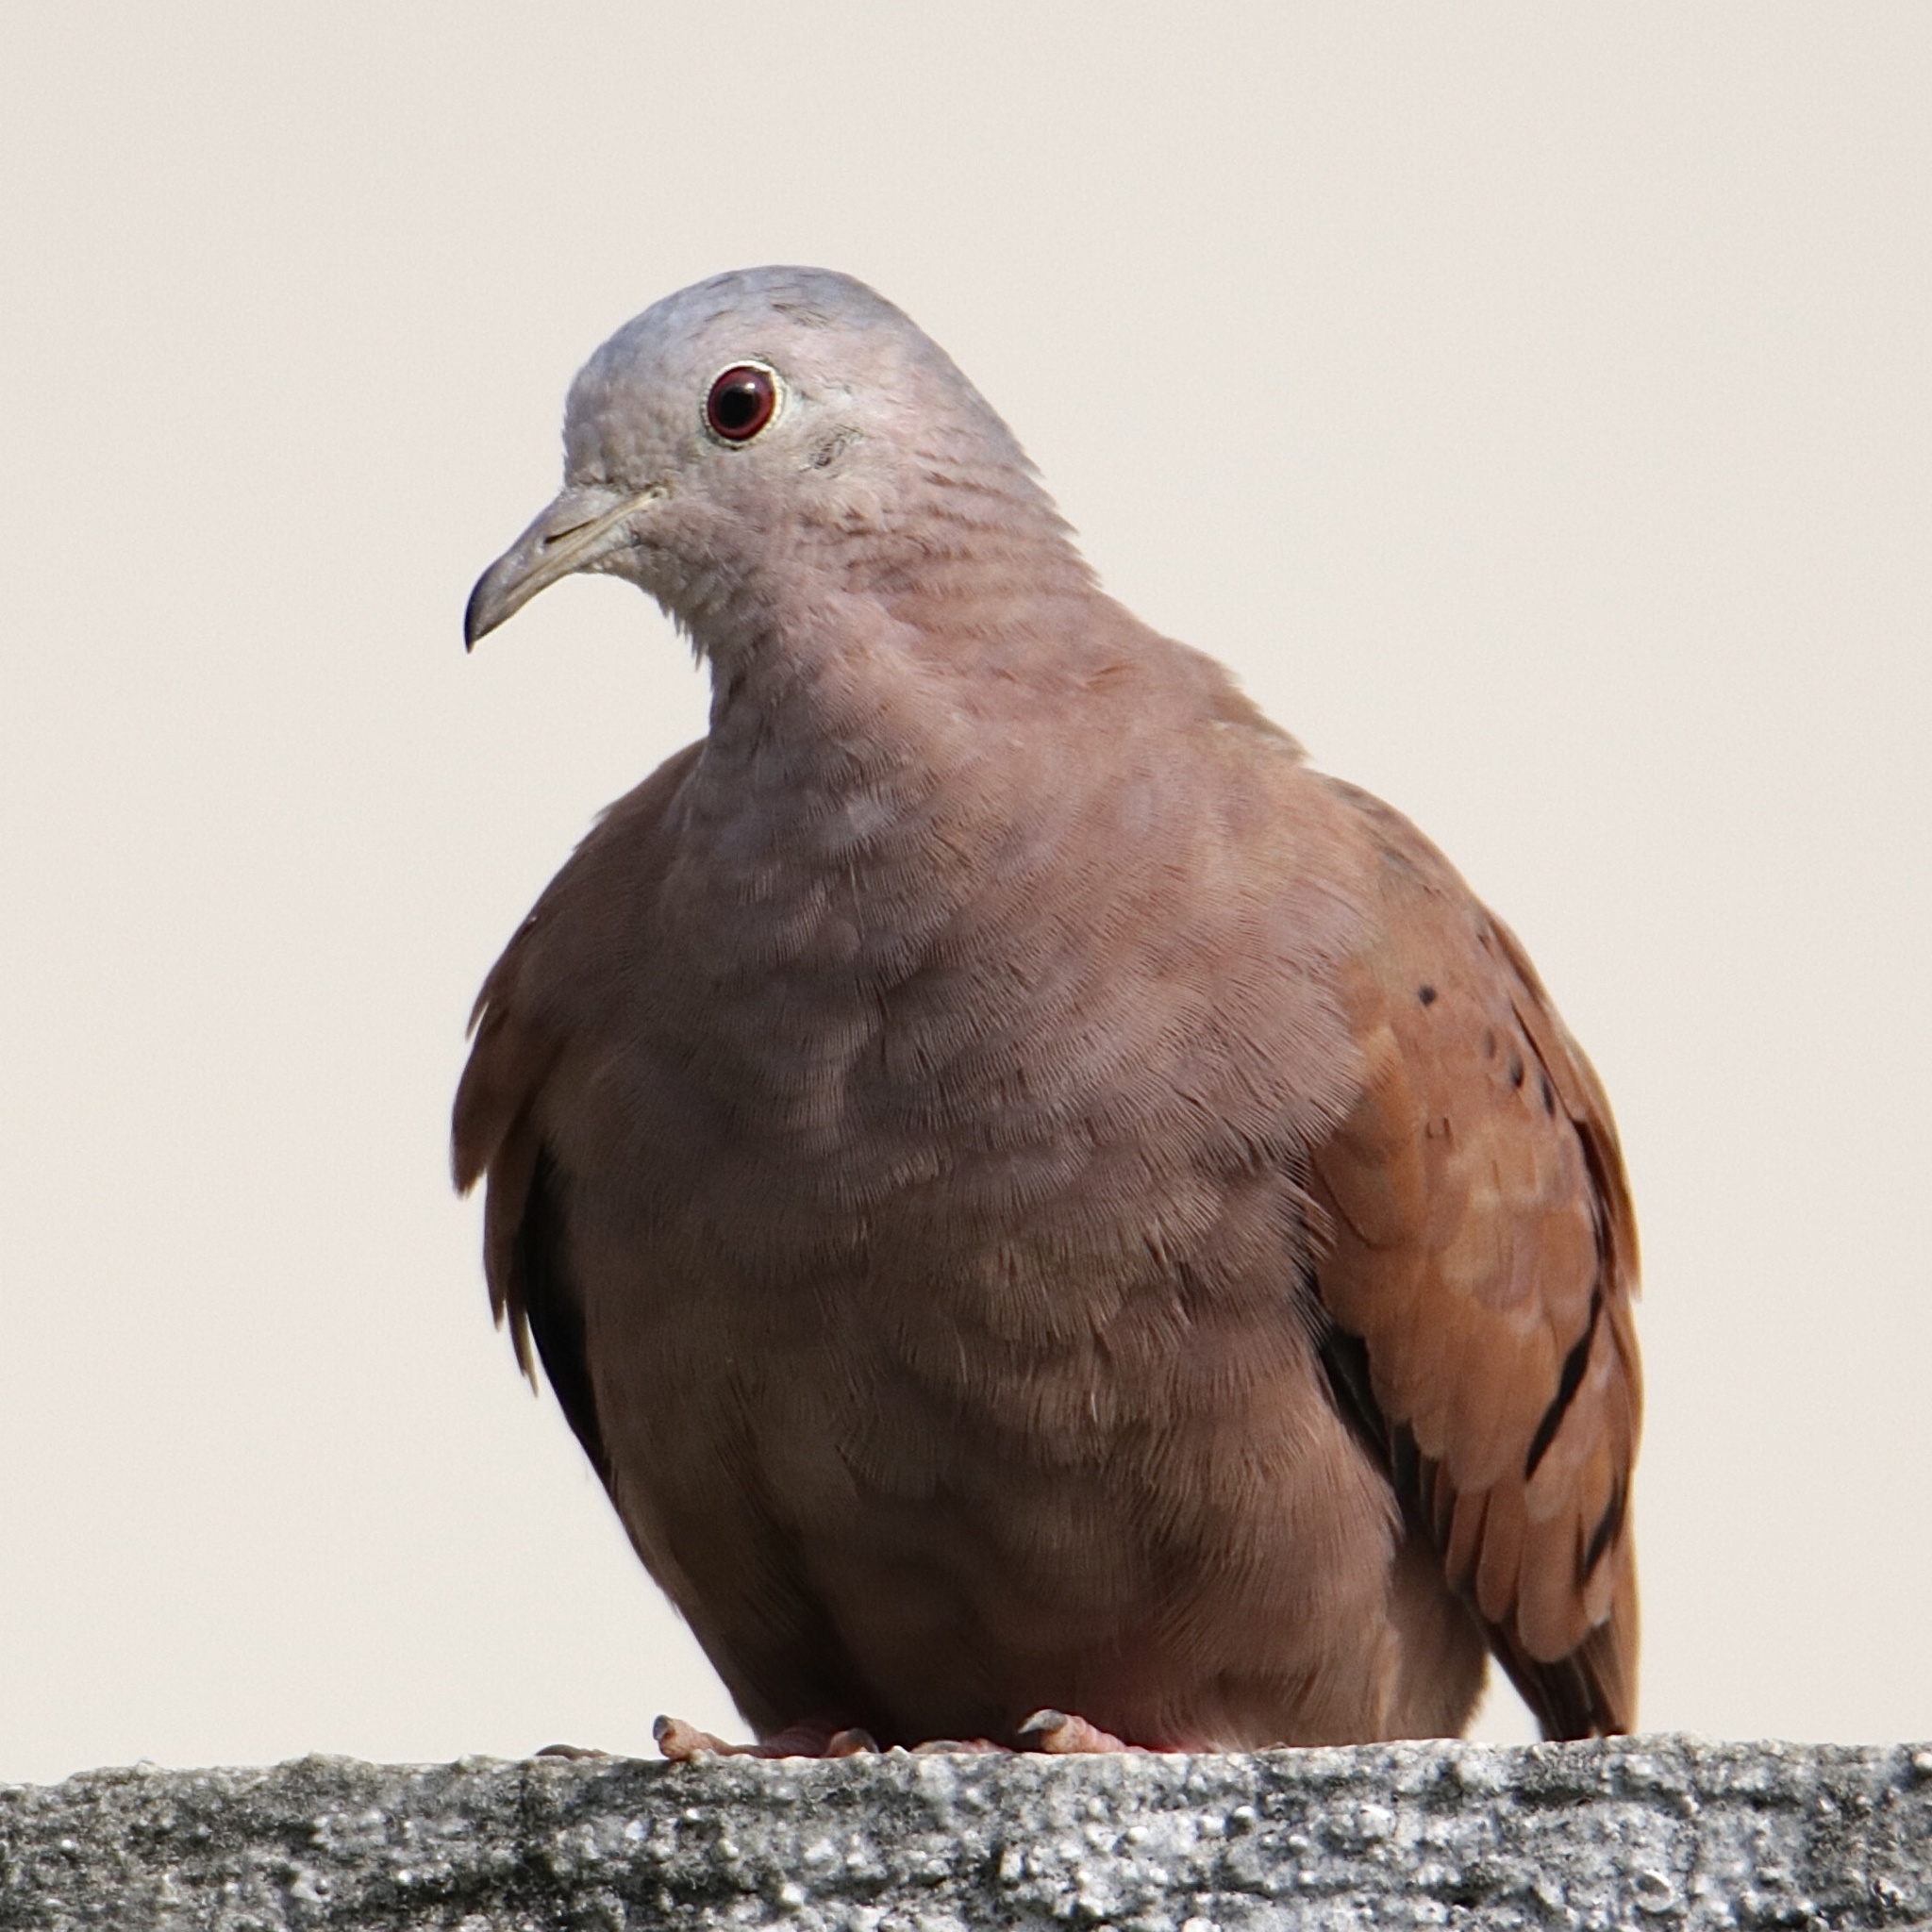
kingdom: Animalia
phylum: Chordata
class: Aves
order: Columbiformes
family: Columbidae
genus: Columbina
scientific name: Columbina talpacoti
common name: Ruddy ground dove
